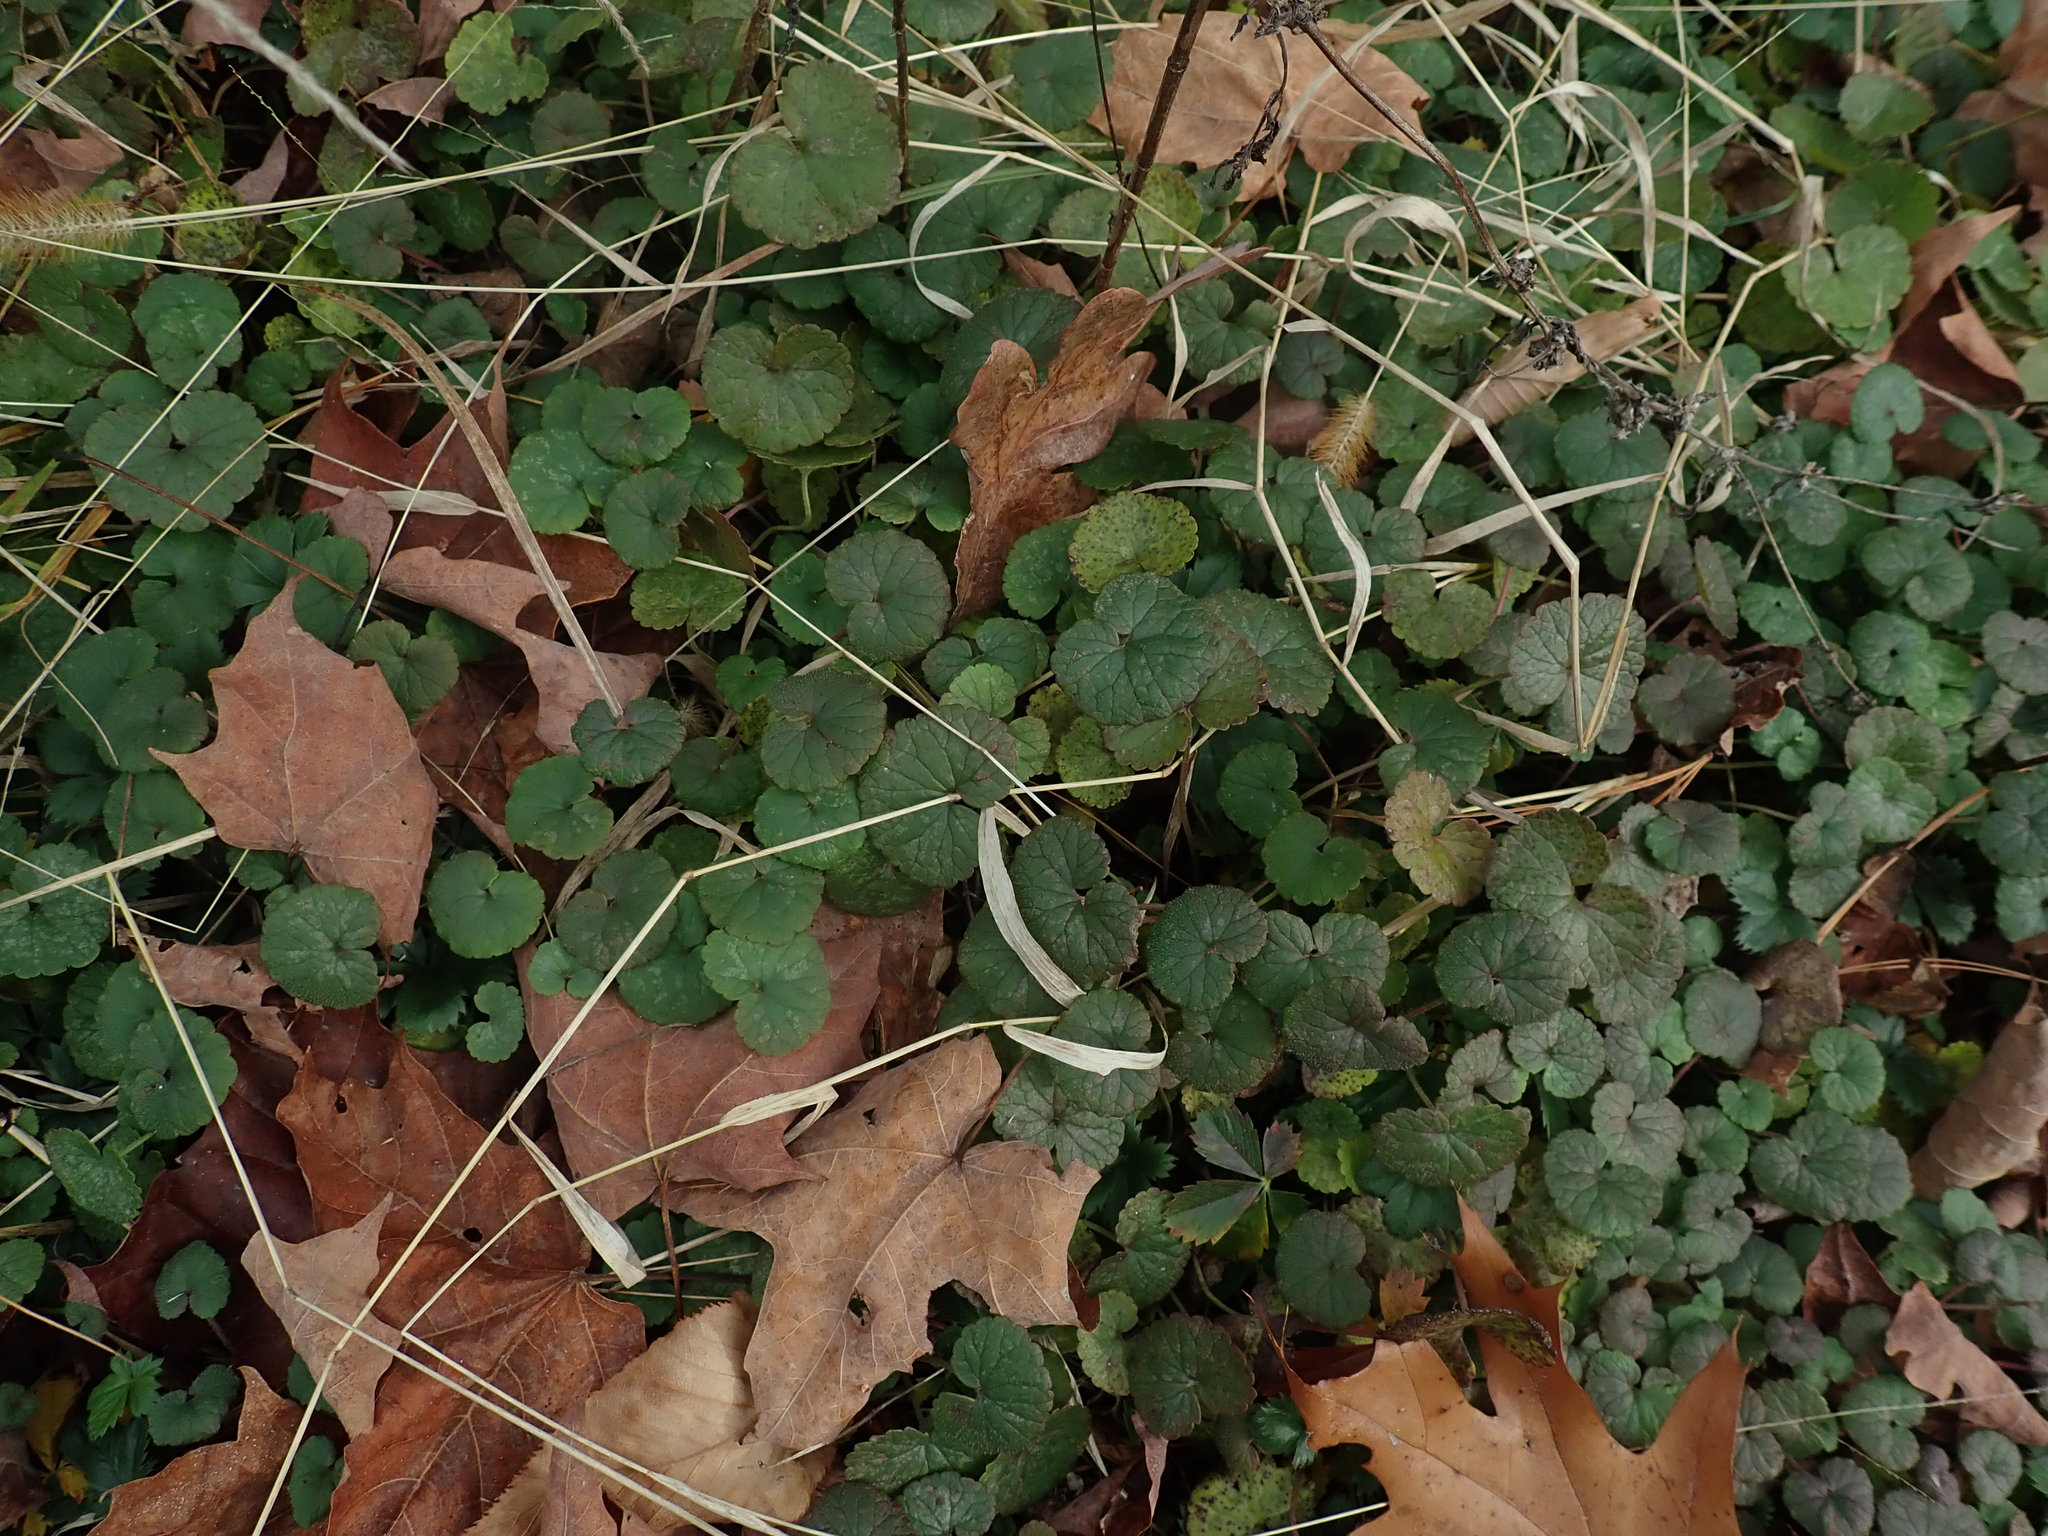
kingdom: Plantae
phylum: Tracheophyta
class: Magnoliopsida
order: Lamiales
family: Lamiaceae
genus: Glechoma
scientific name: Glechoma hederacea
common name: Ground ivy
